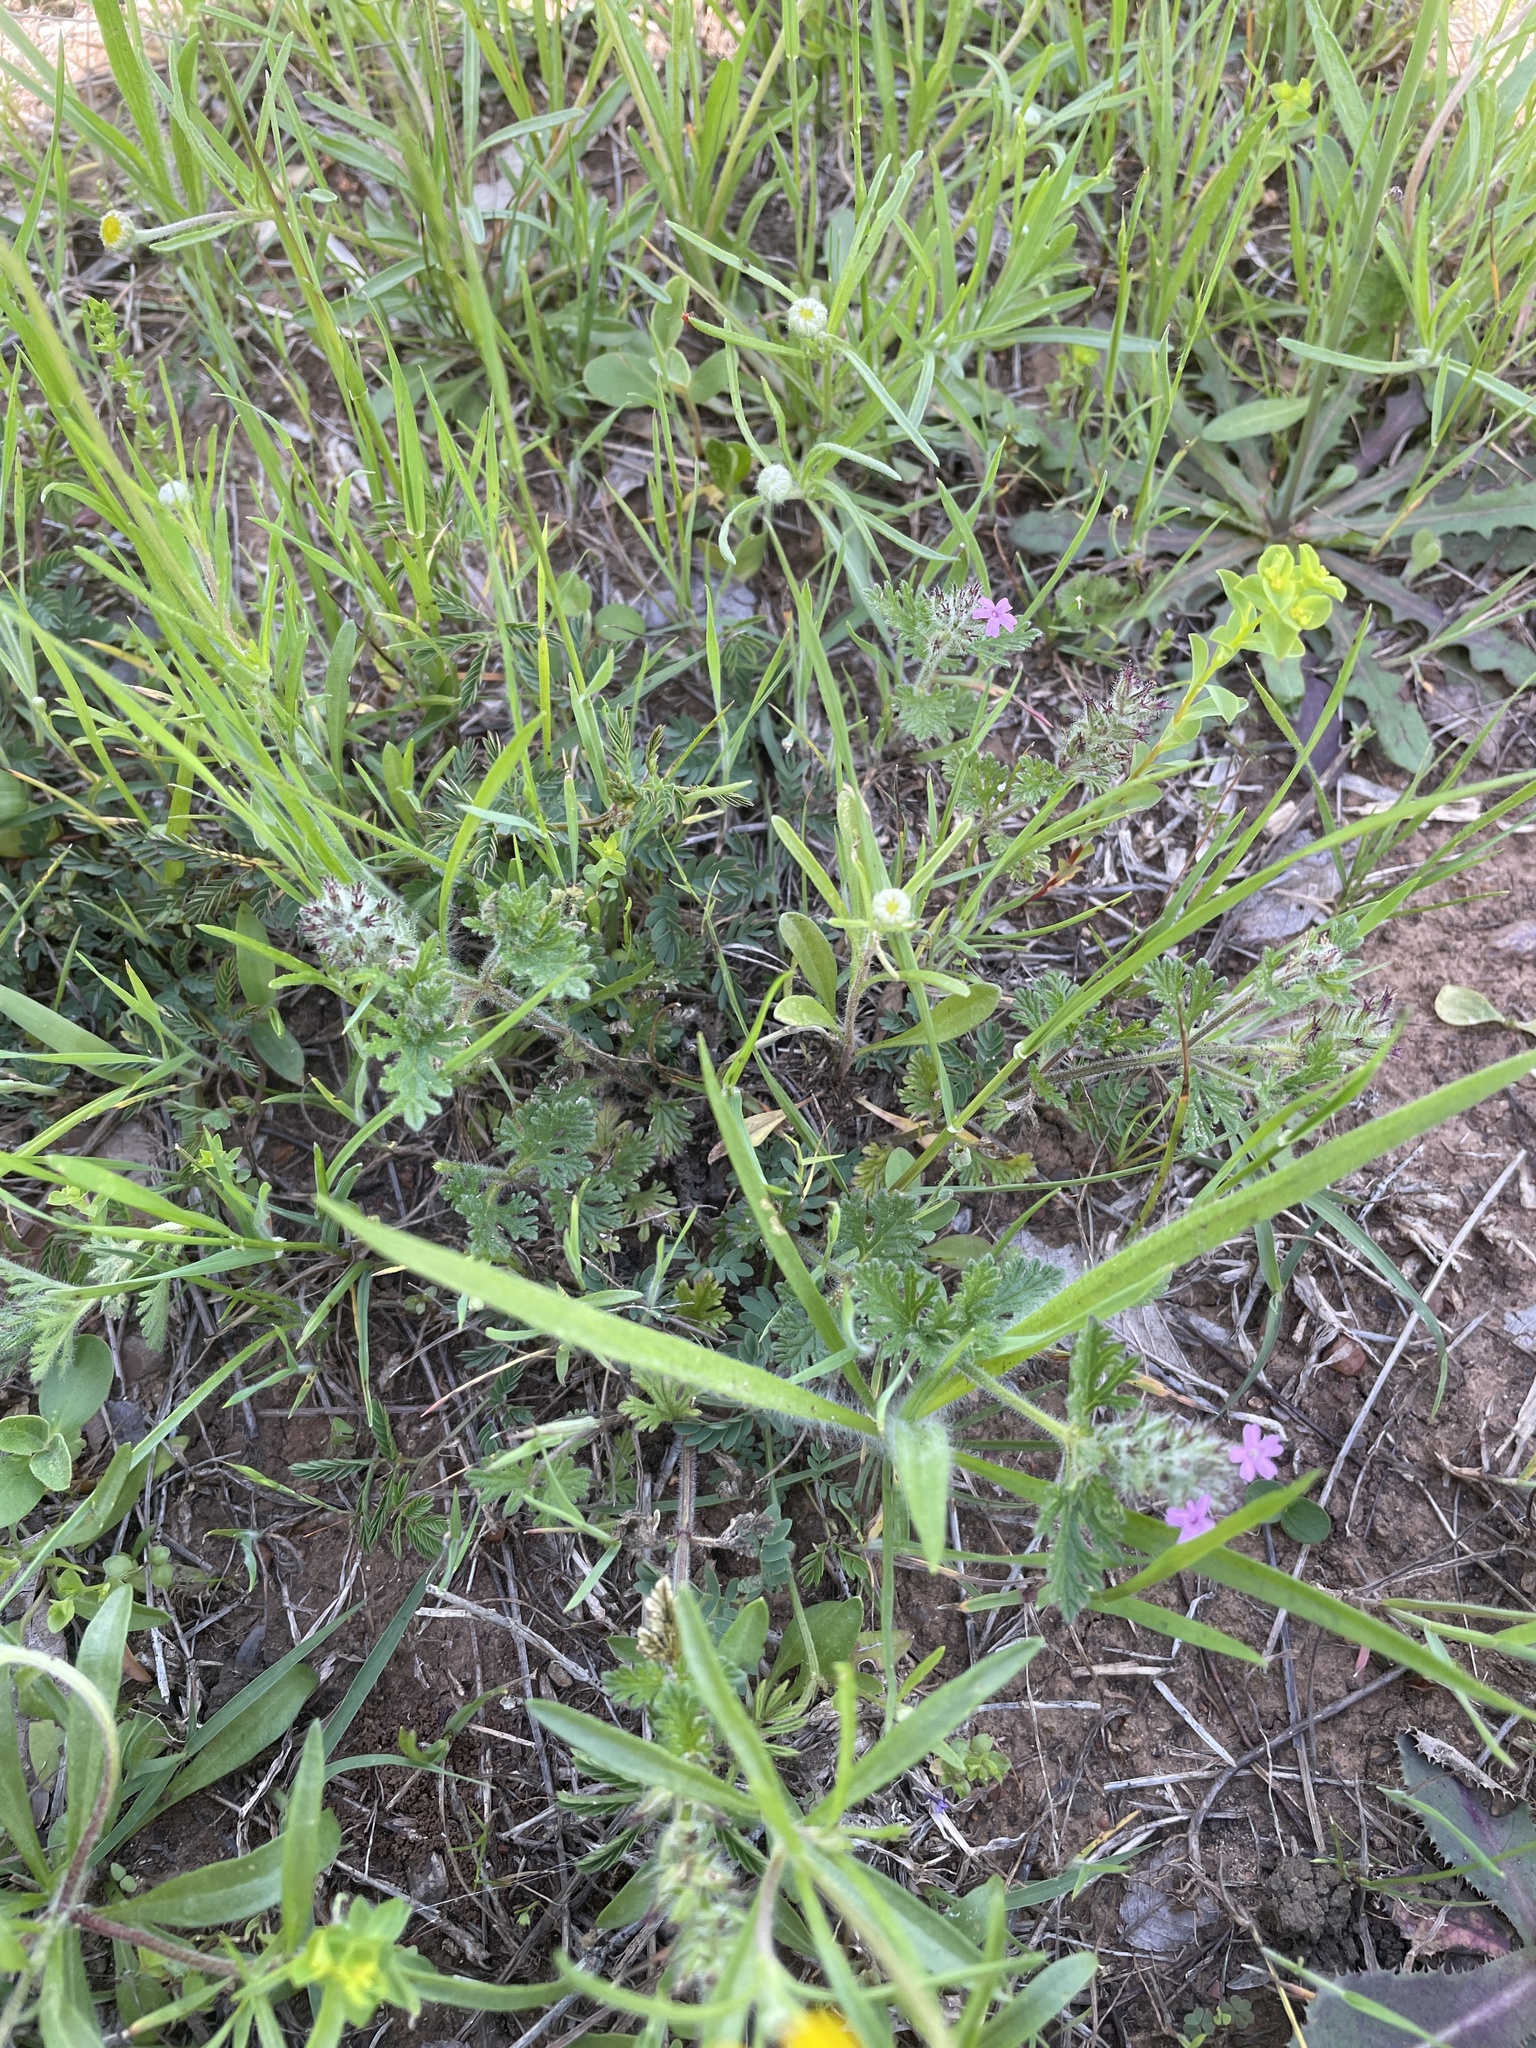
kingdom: Plantae
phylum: Tracheophyta
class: Magnoliopsida
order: Lamiales
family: Verbenaceae
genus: Verbena
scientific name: Verbena pumila
